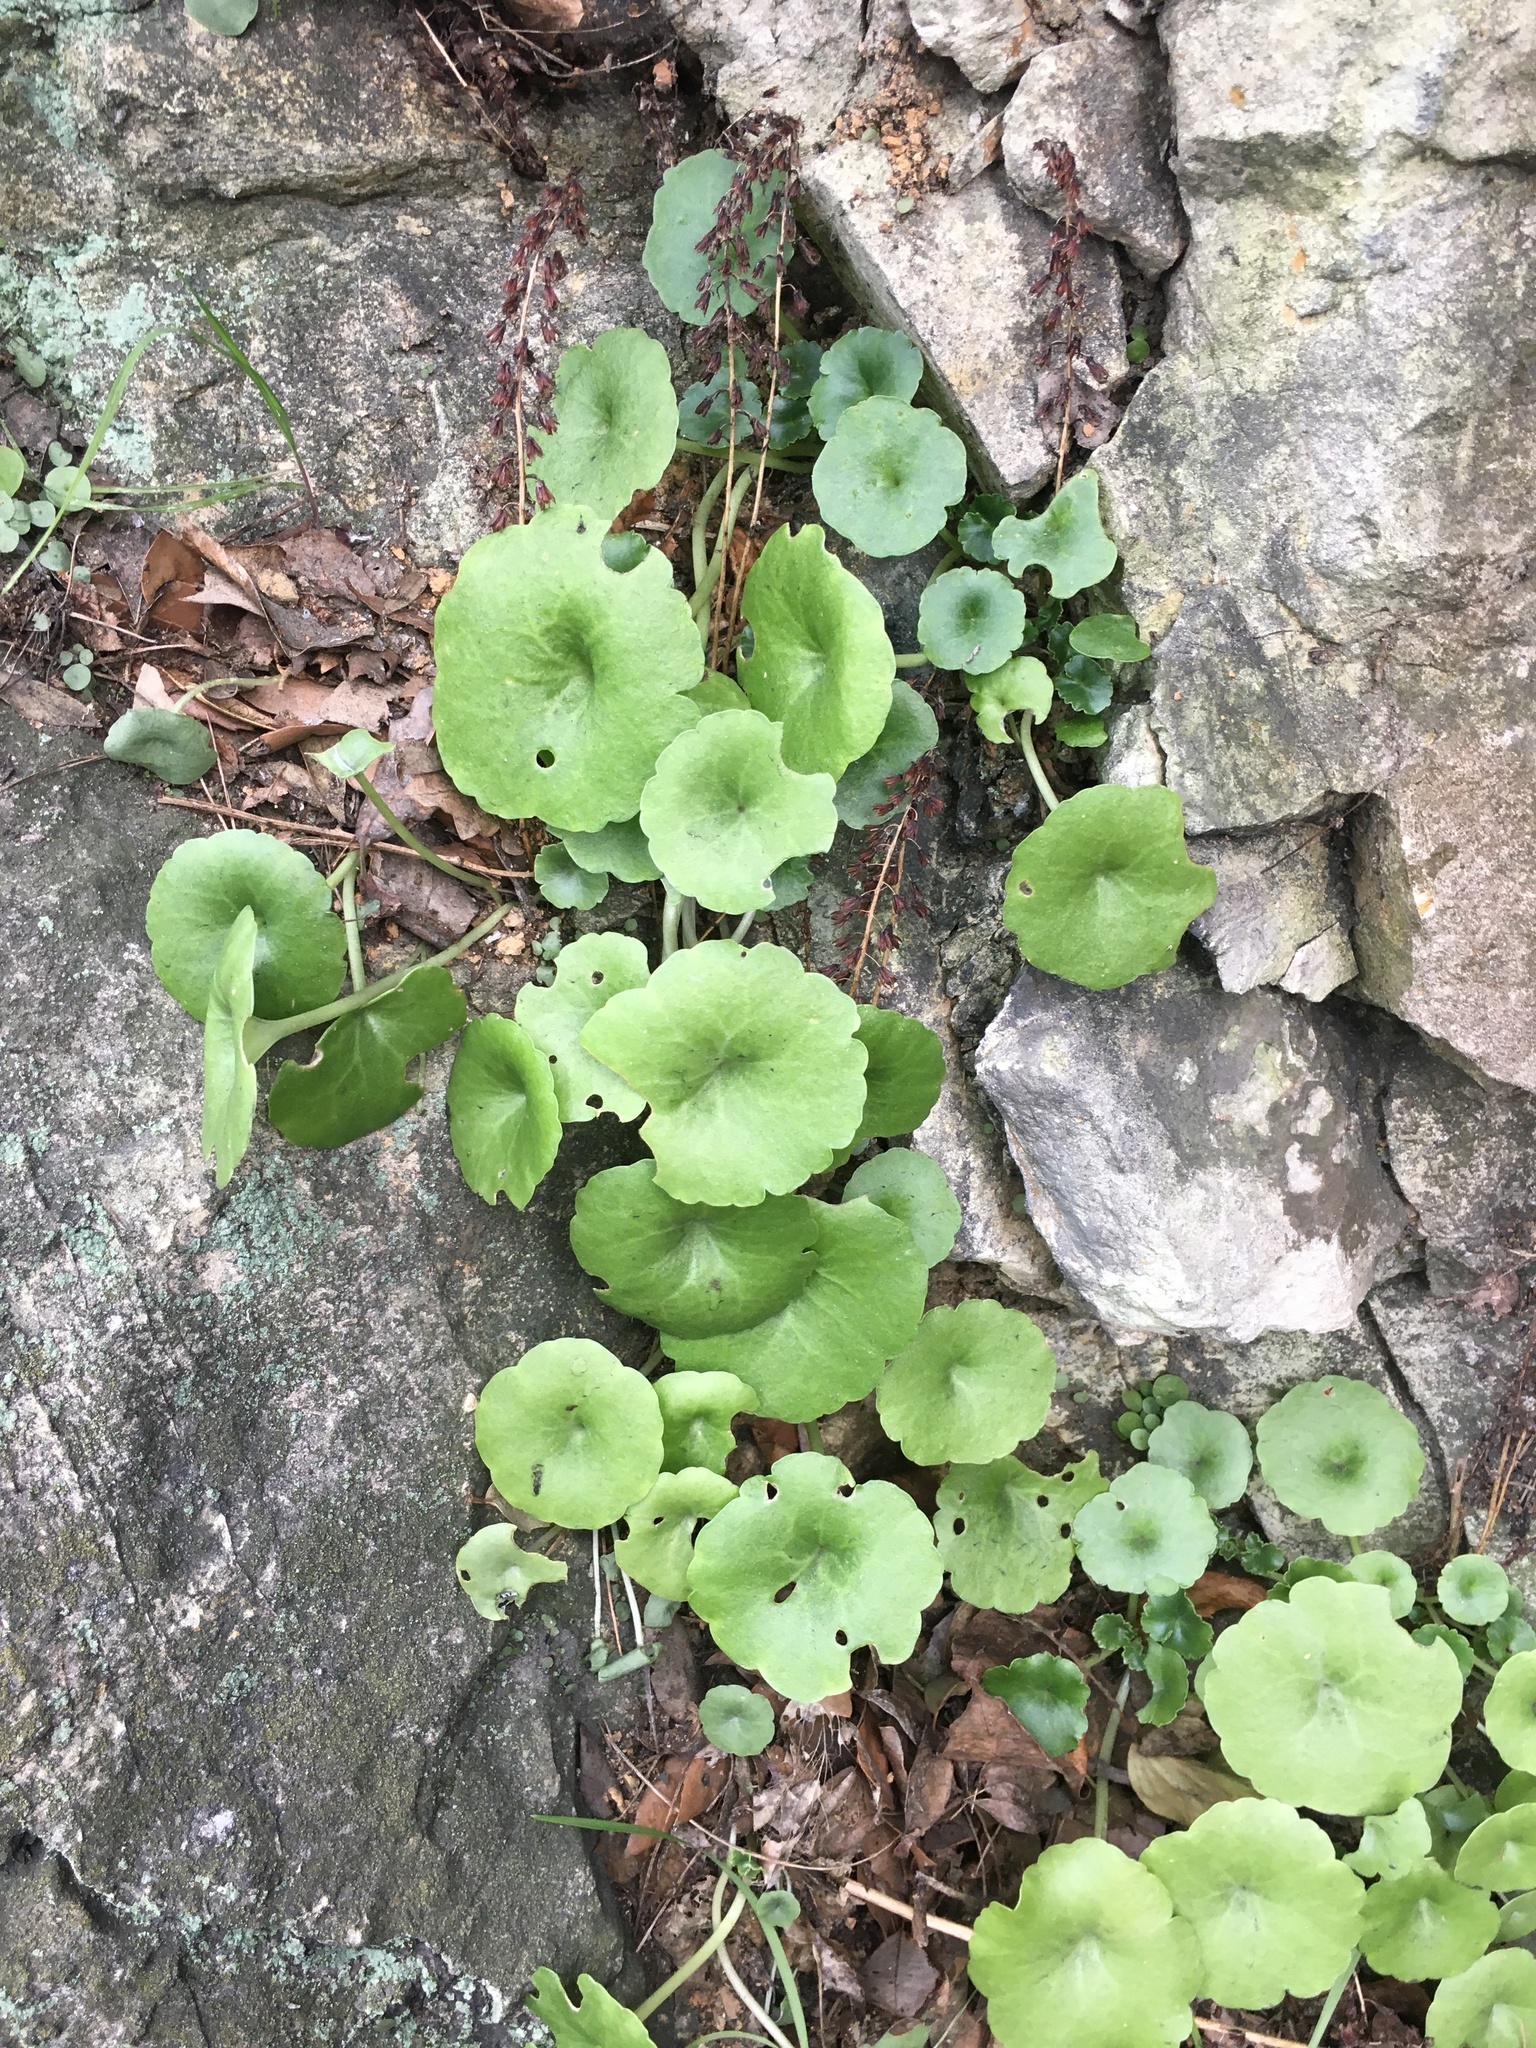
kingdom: Plantae
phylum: Tracheophyta
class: Magnoliopsida
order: Saxifragales
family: Crassulaceae
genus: Umbilicus
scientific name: Umbilicus rupestris
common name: Navelwort
